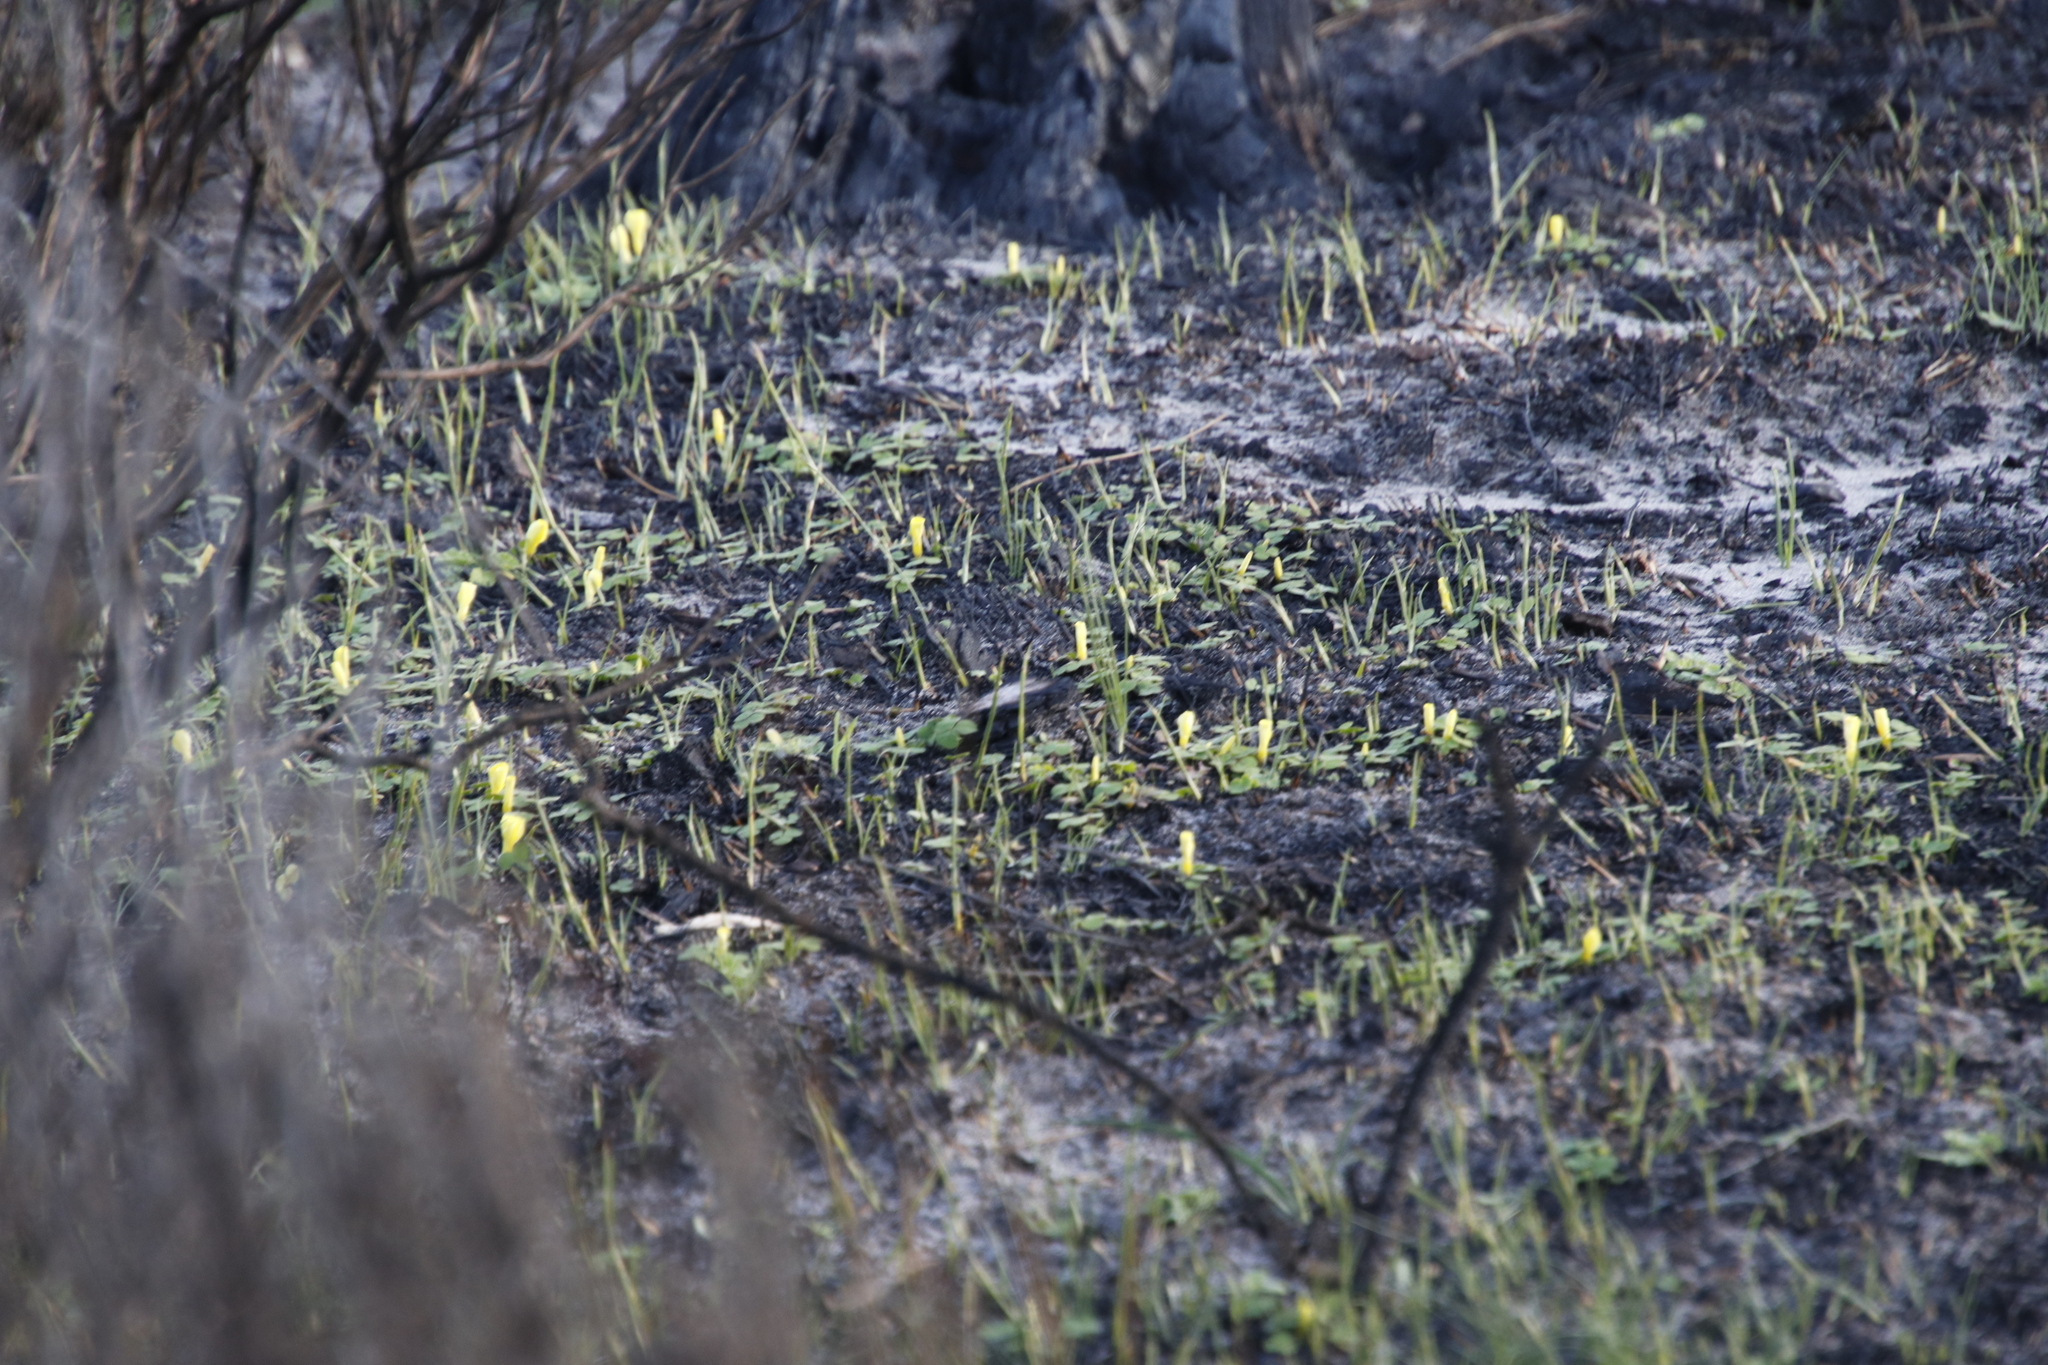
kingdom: Plantae
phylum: Tracheophyta
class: Magnoliopsida
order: Oxalidales
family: Oxalidaceae
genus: Oxalis
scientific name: Oxalis luteola
